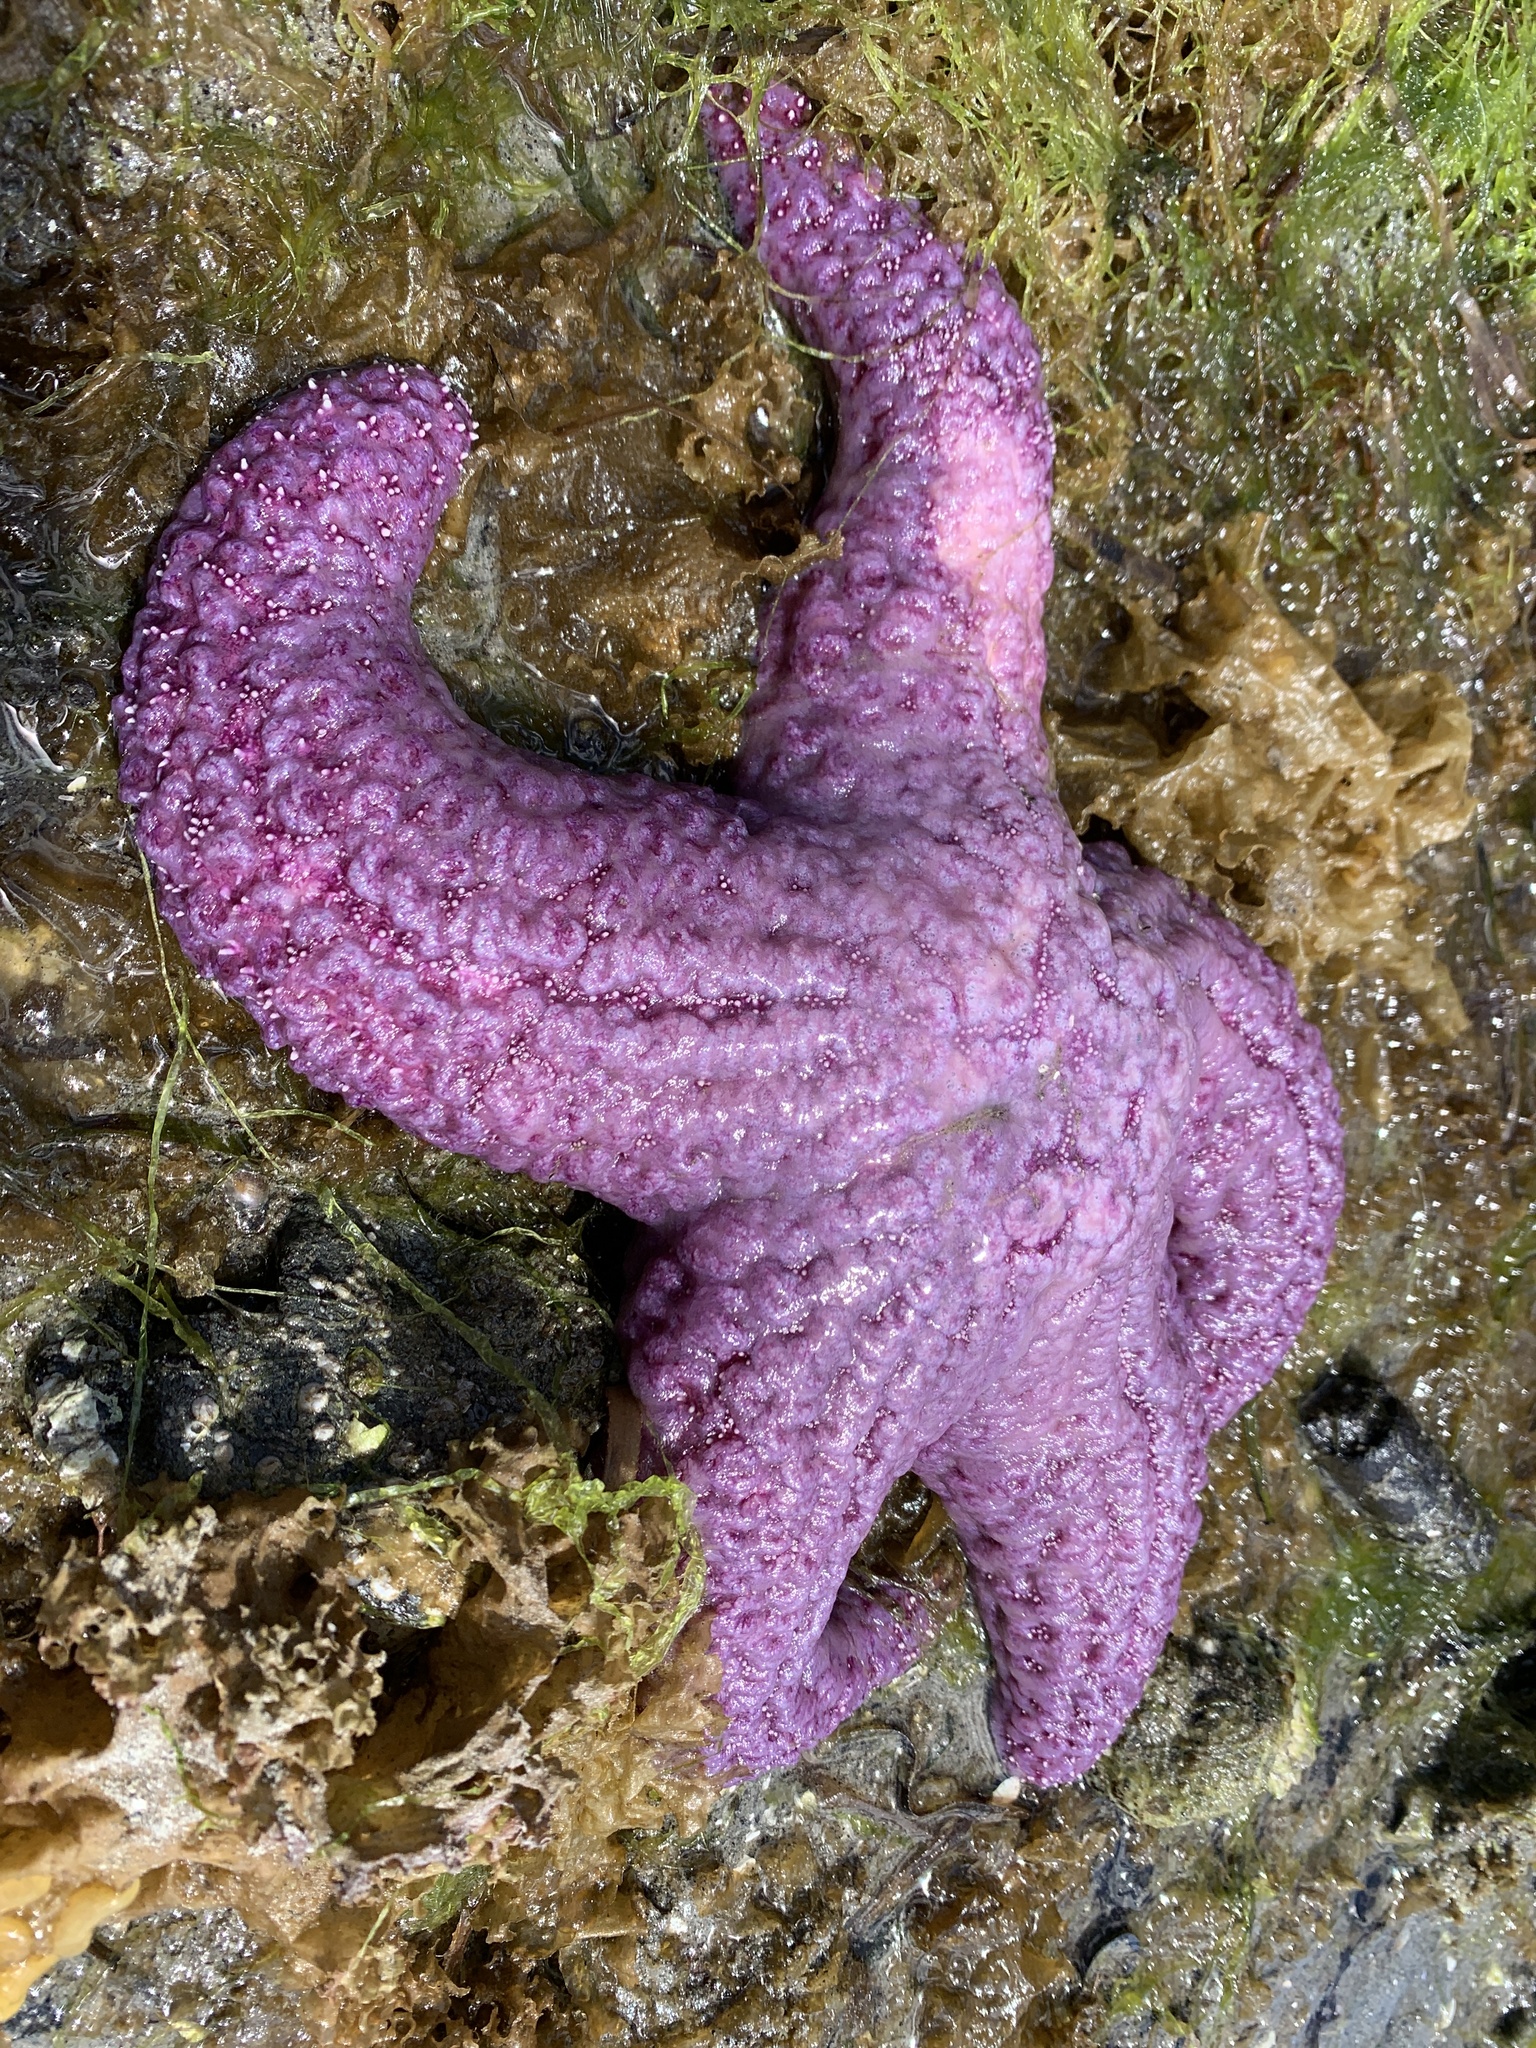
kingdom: Animalia
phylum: Echinodermata
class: Asteroidea
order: Forcipulatida
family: Asteriidae
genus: Pisaster
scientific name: Pisaster ochraceus
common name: Ochre stars
